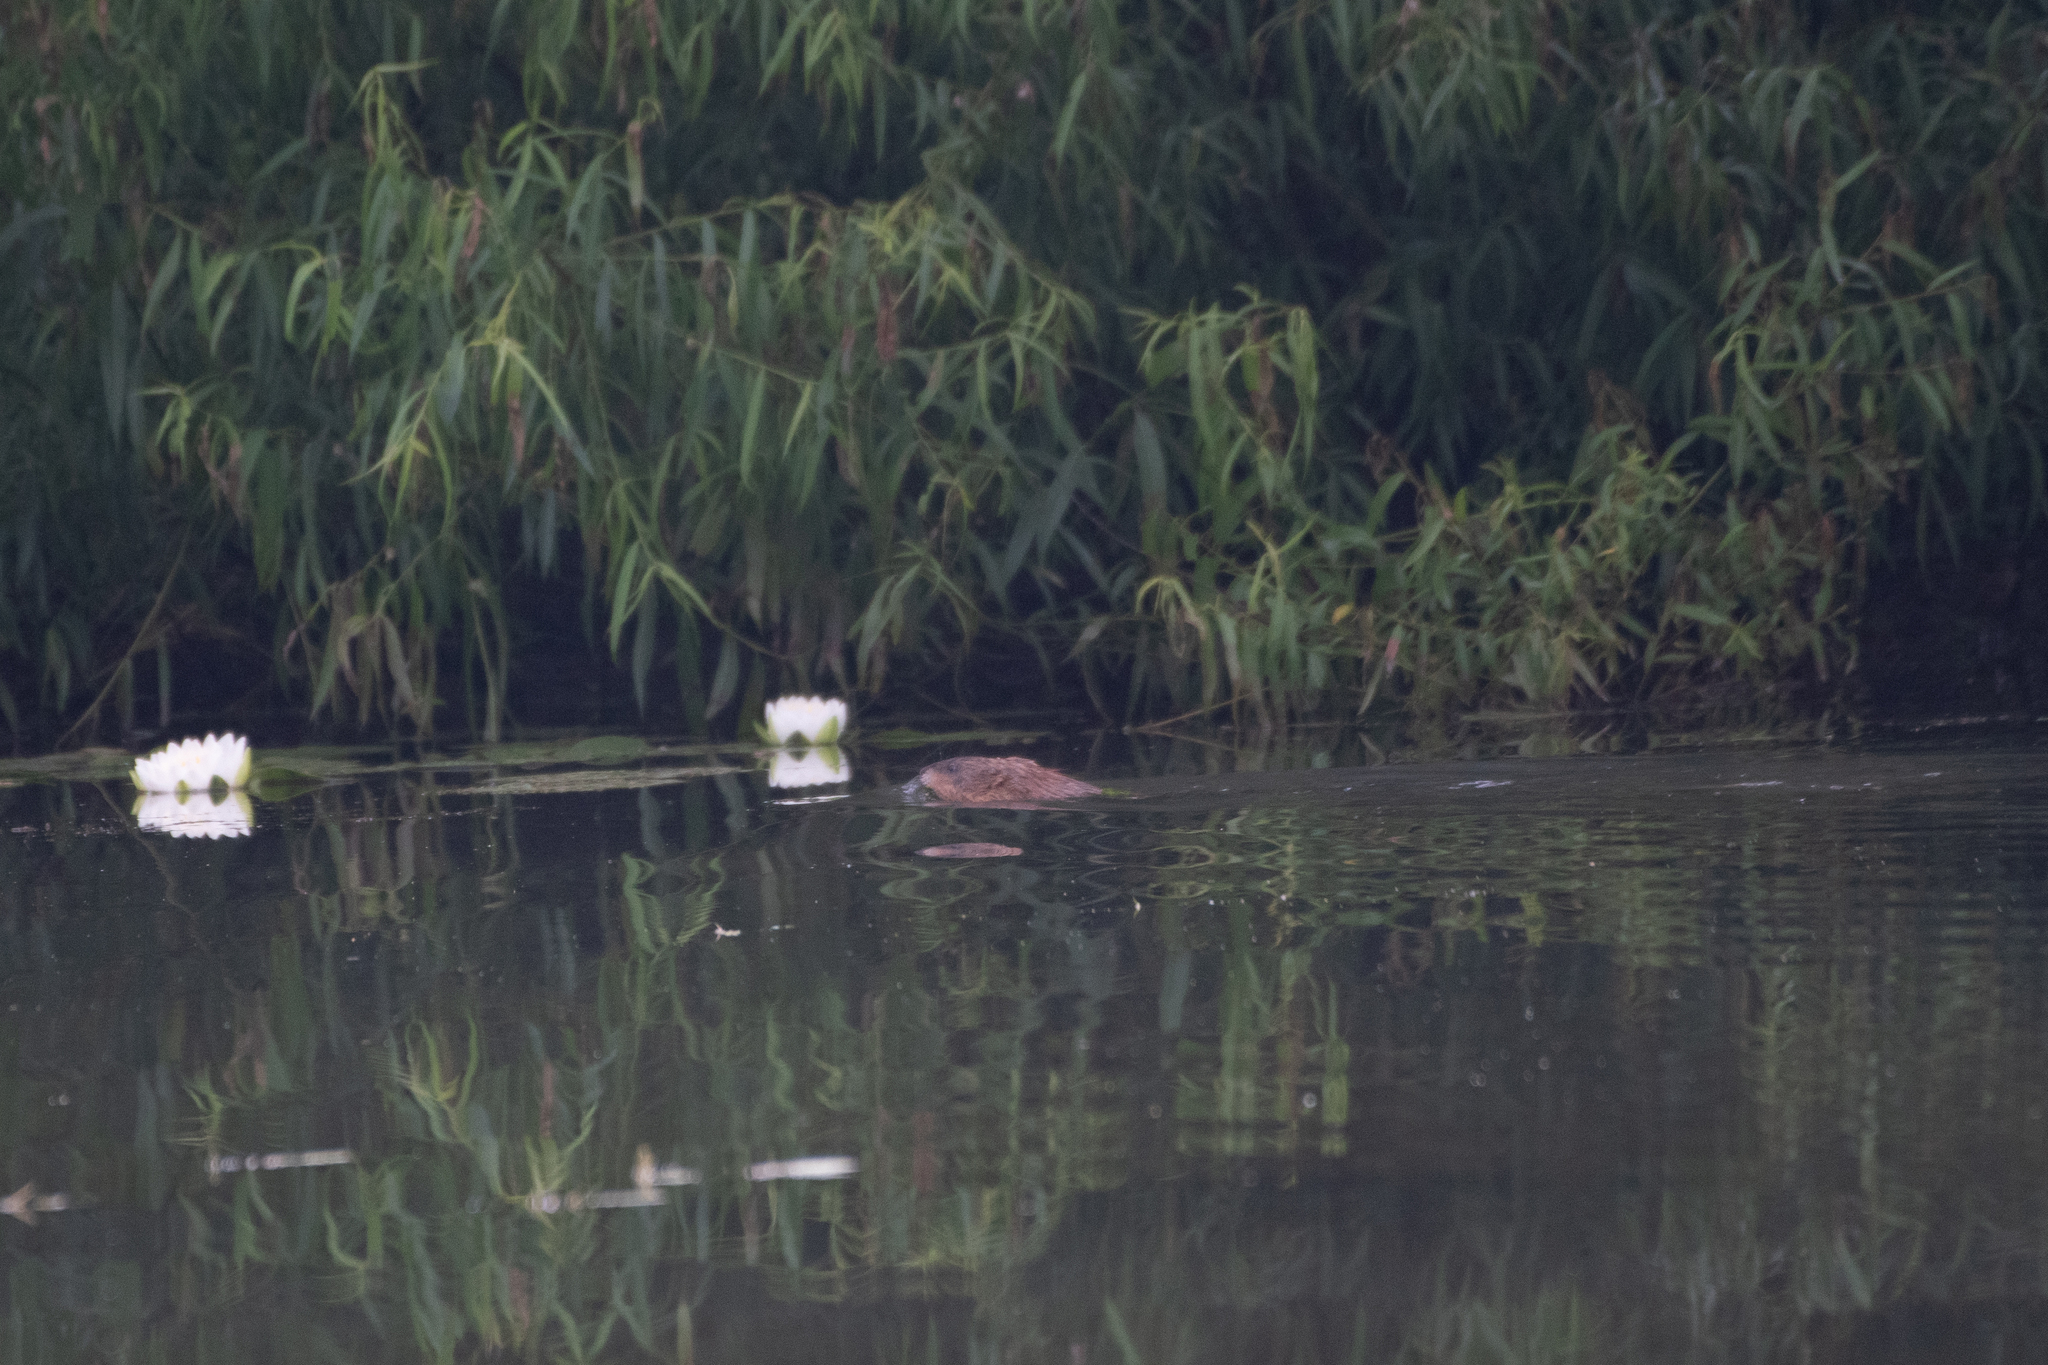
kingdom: Animalia
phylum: Chordata
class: Mammalia
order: Rodentia
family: Cricetidae
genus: Ondatra
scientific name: Ondatra zibethicus
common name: Muskrat
